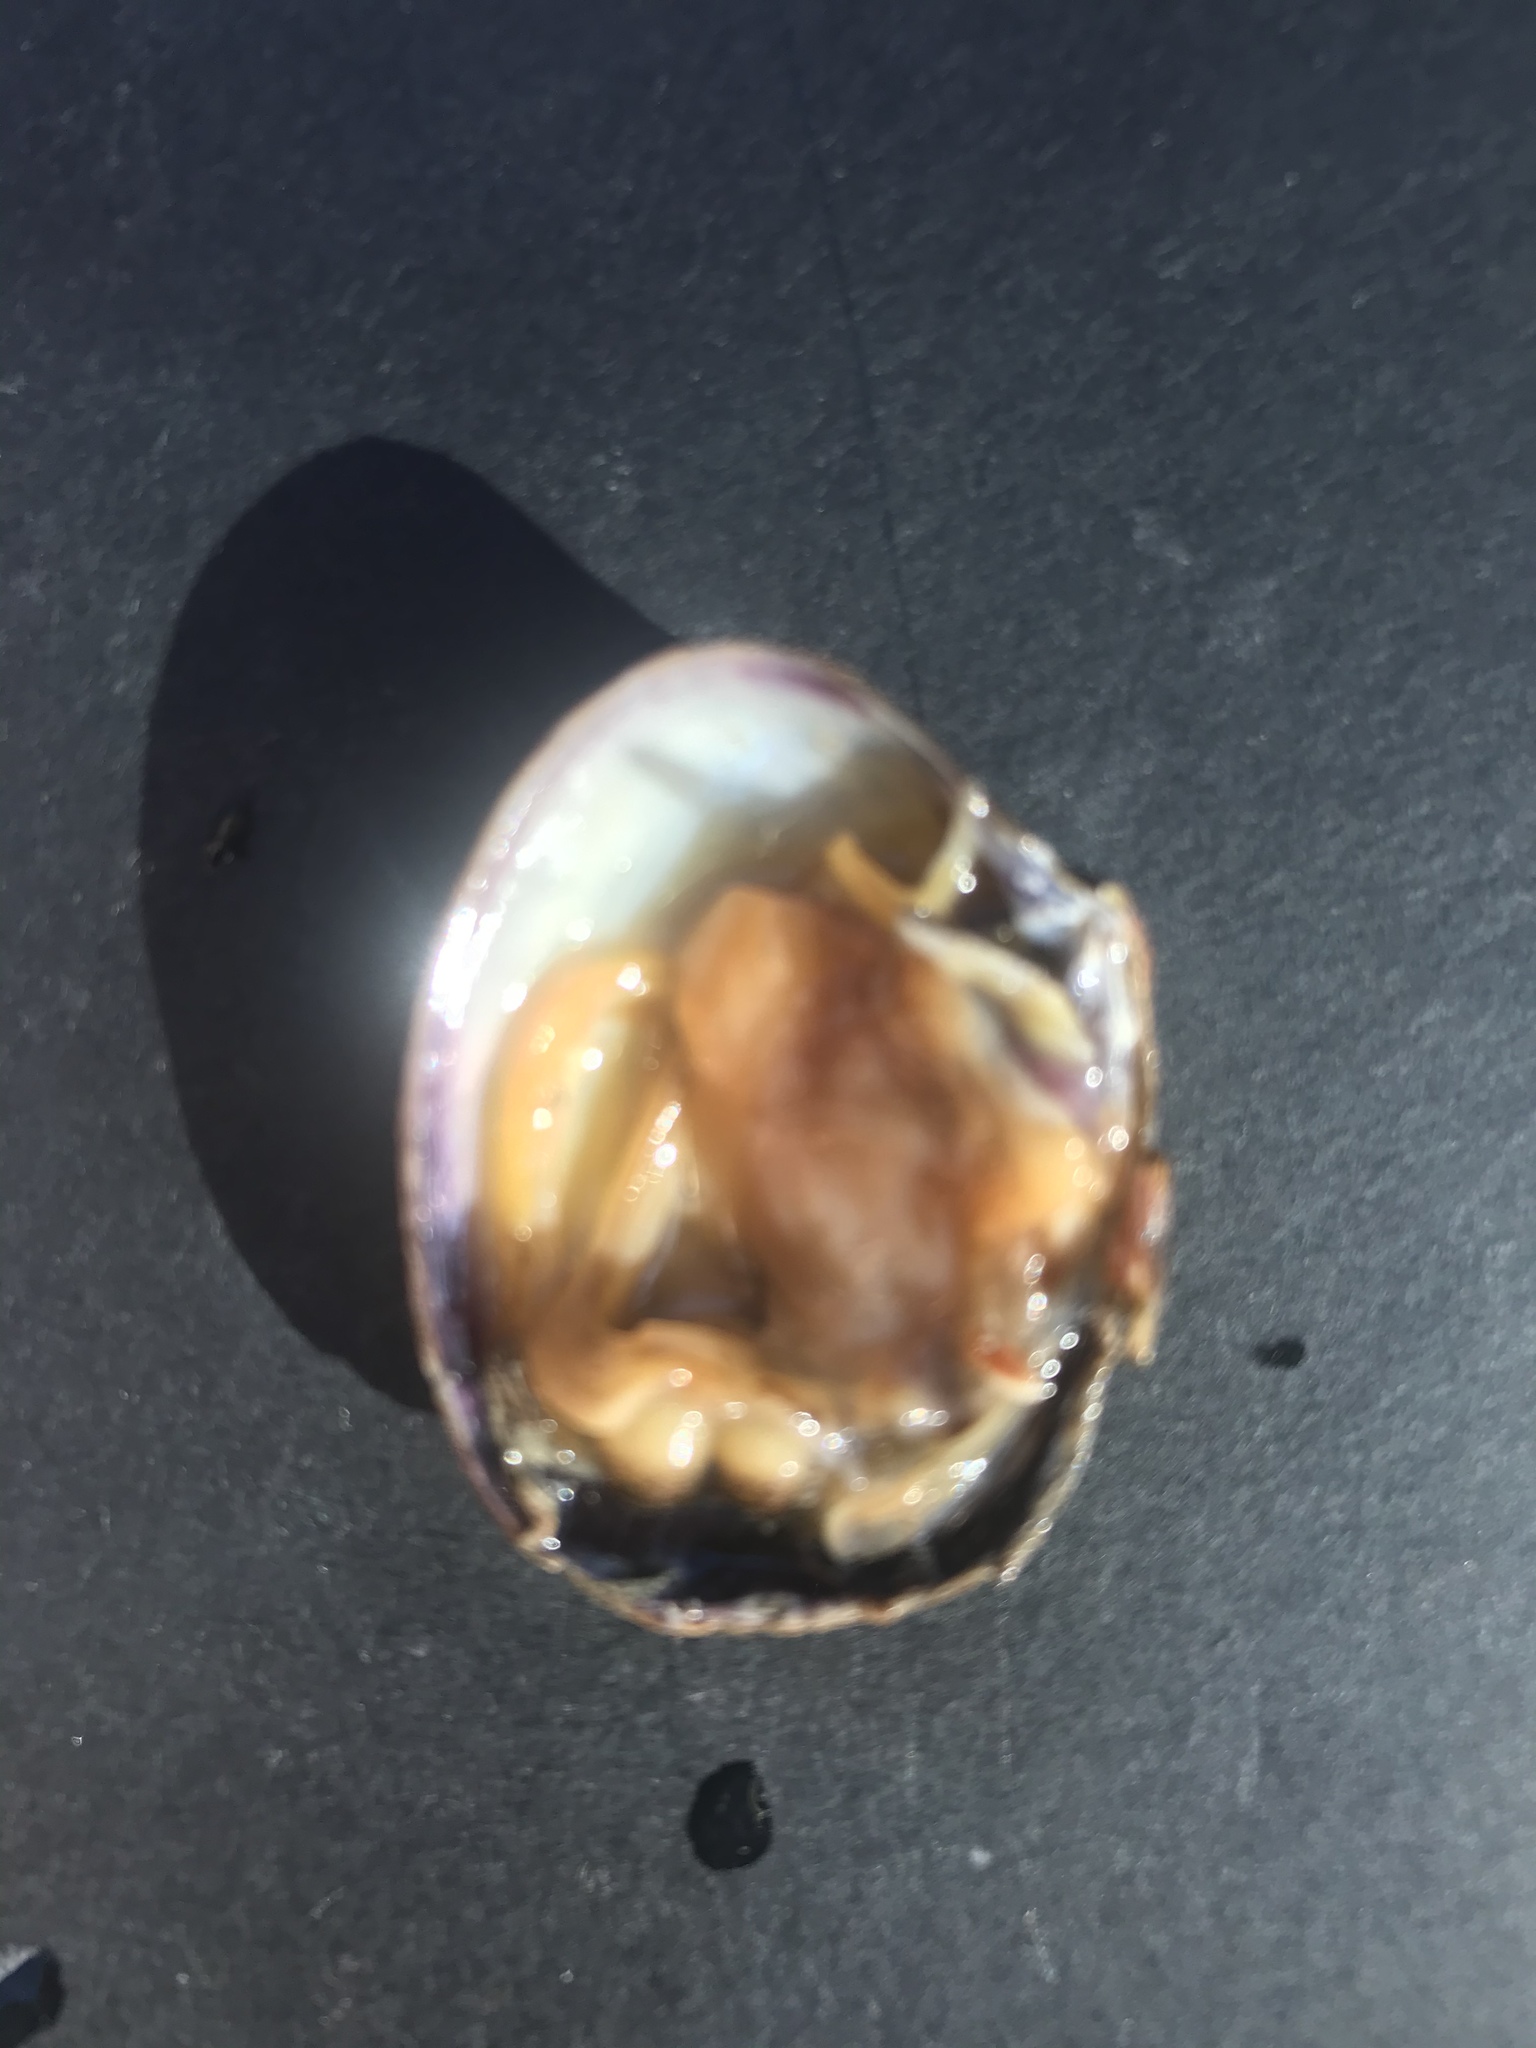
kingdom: Animalia
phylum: Mollusca
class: Bivalvia
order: Venerida
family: Veneridae
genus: Ruditapes
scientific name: Ruditapes philippinarum
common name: Manila clam
